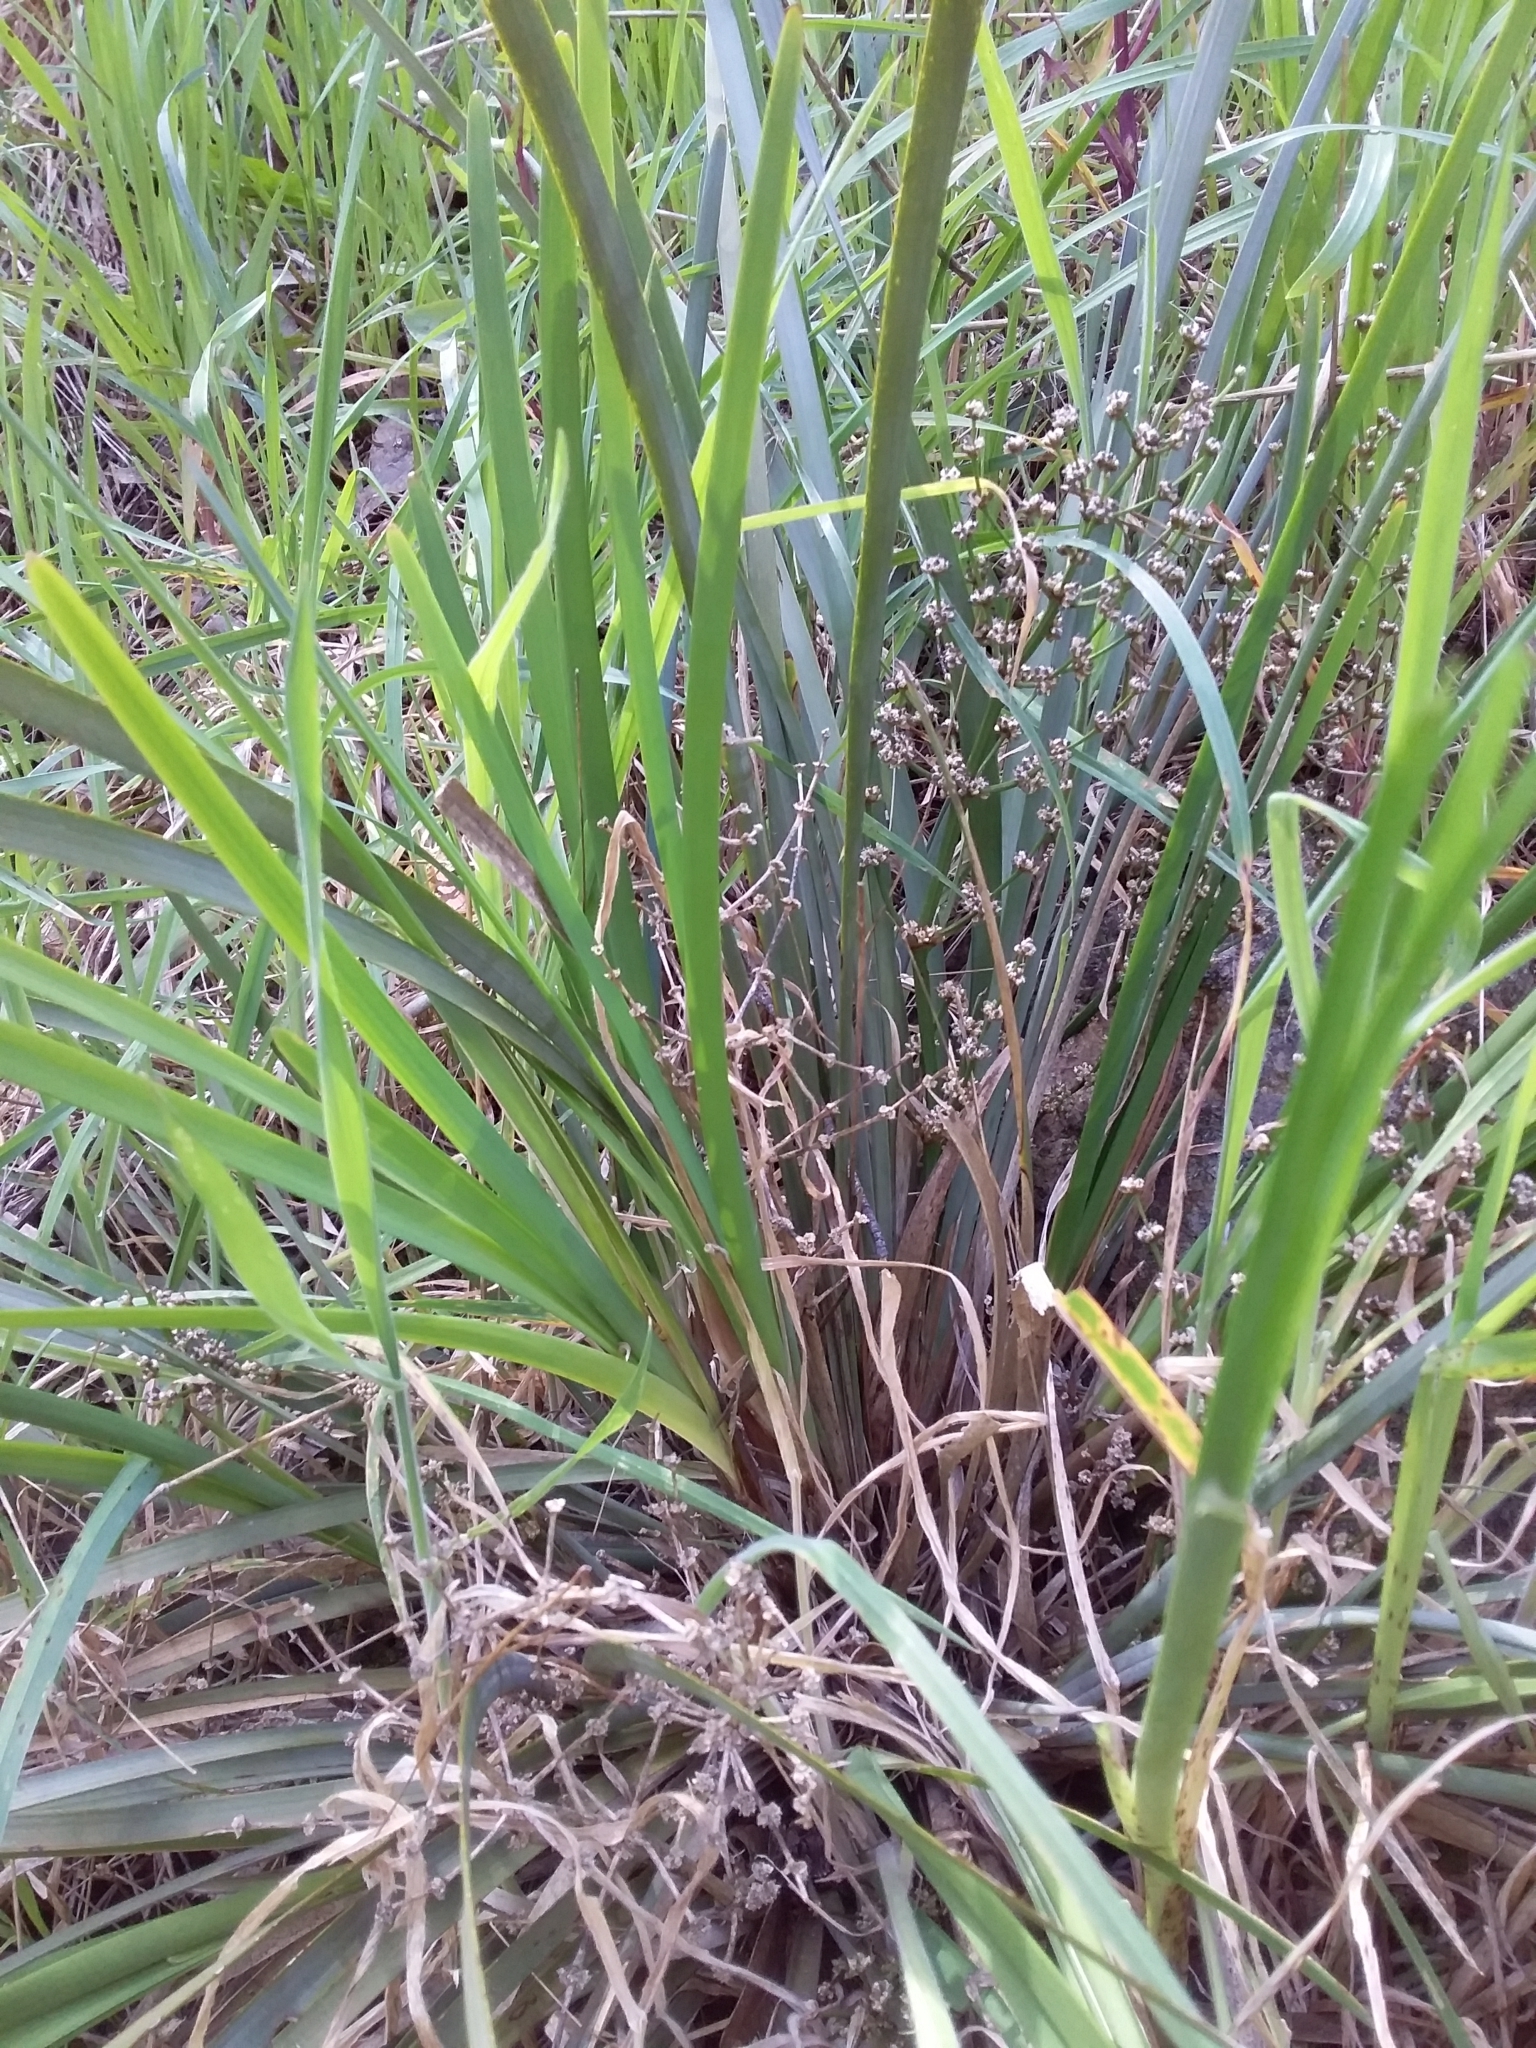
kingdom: Plantae
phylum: Tracheophyta
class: Liliopsida
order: Asparagales
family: Asparagaceae
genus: Lomandra
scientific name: Lomandra multiflora
